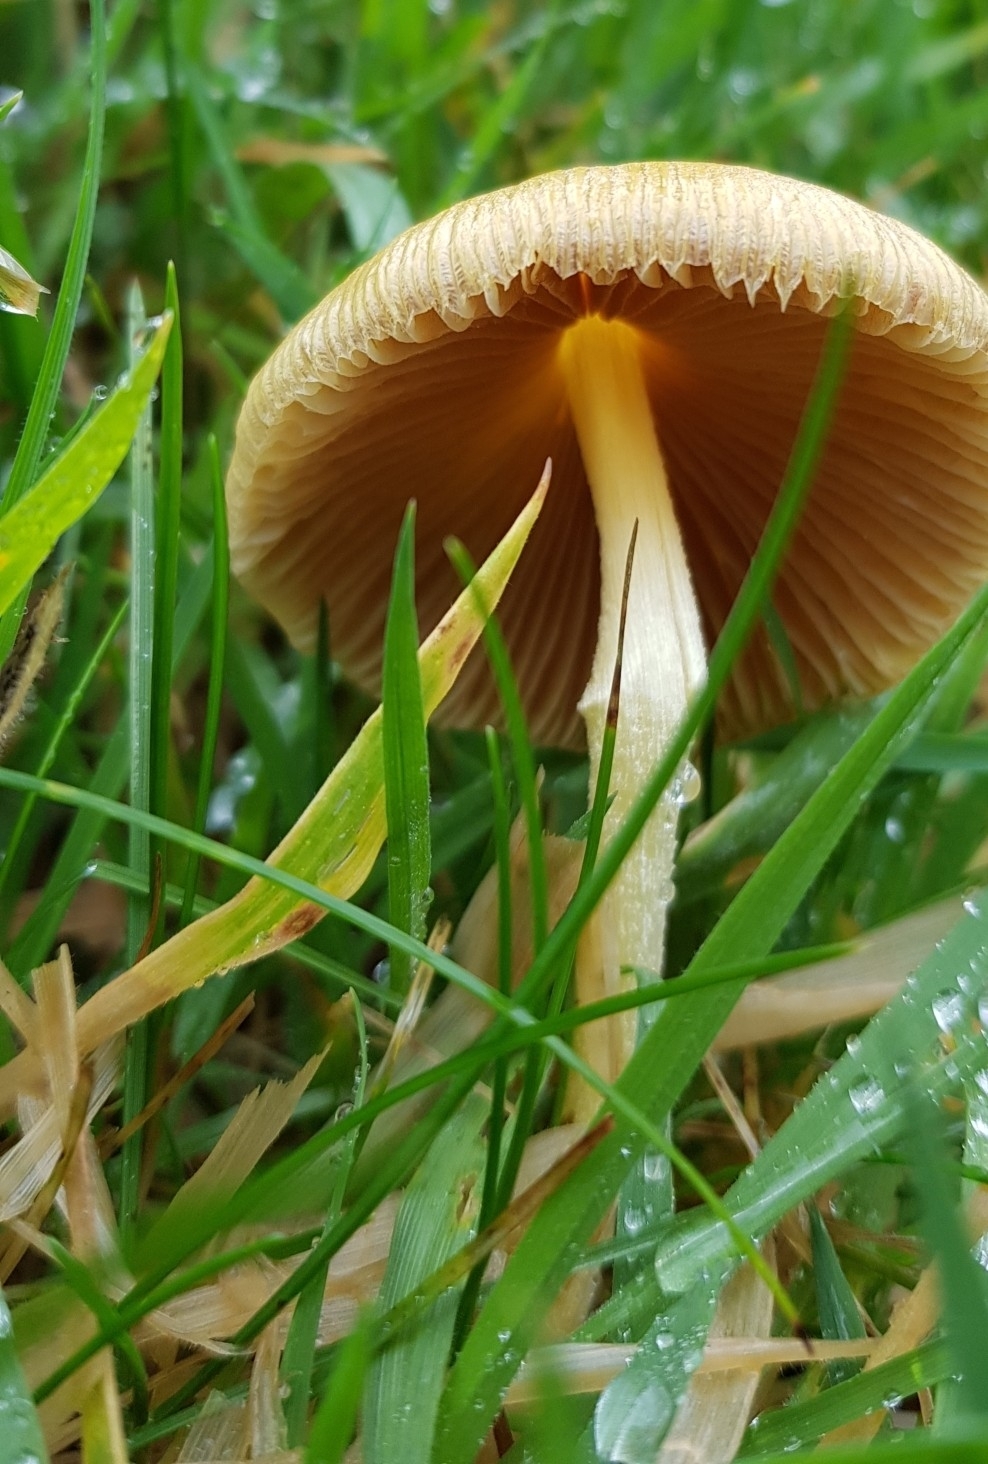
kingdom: Fungi
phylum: Basidiomycota
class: Agaricomycetes
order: Agaricales
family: Bolbitiaceae
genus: Bolbitius
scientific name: Bolbitius titubans
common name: Yellow fieldcap
